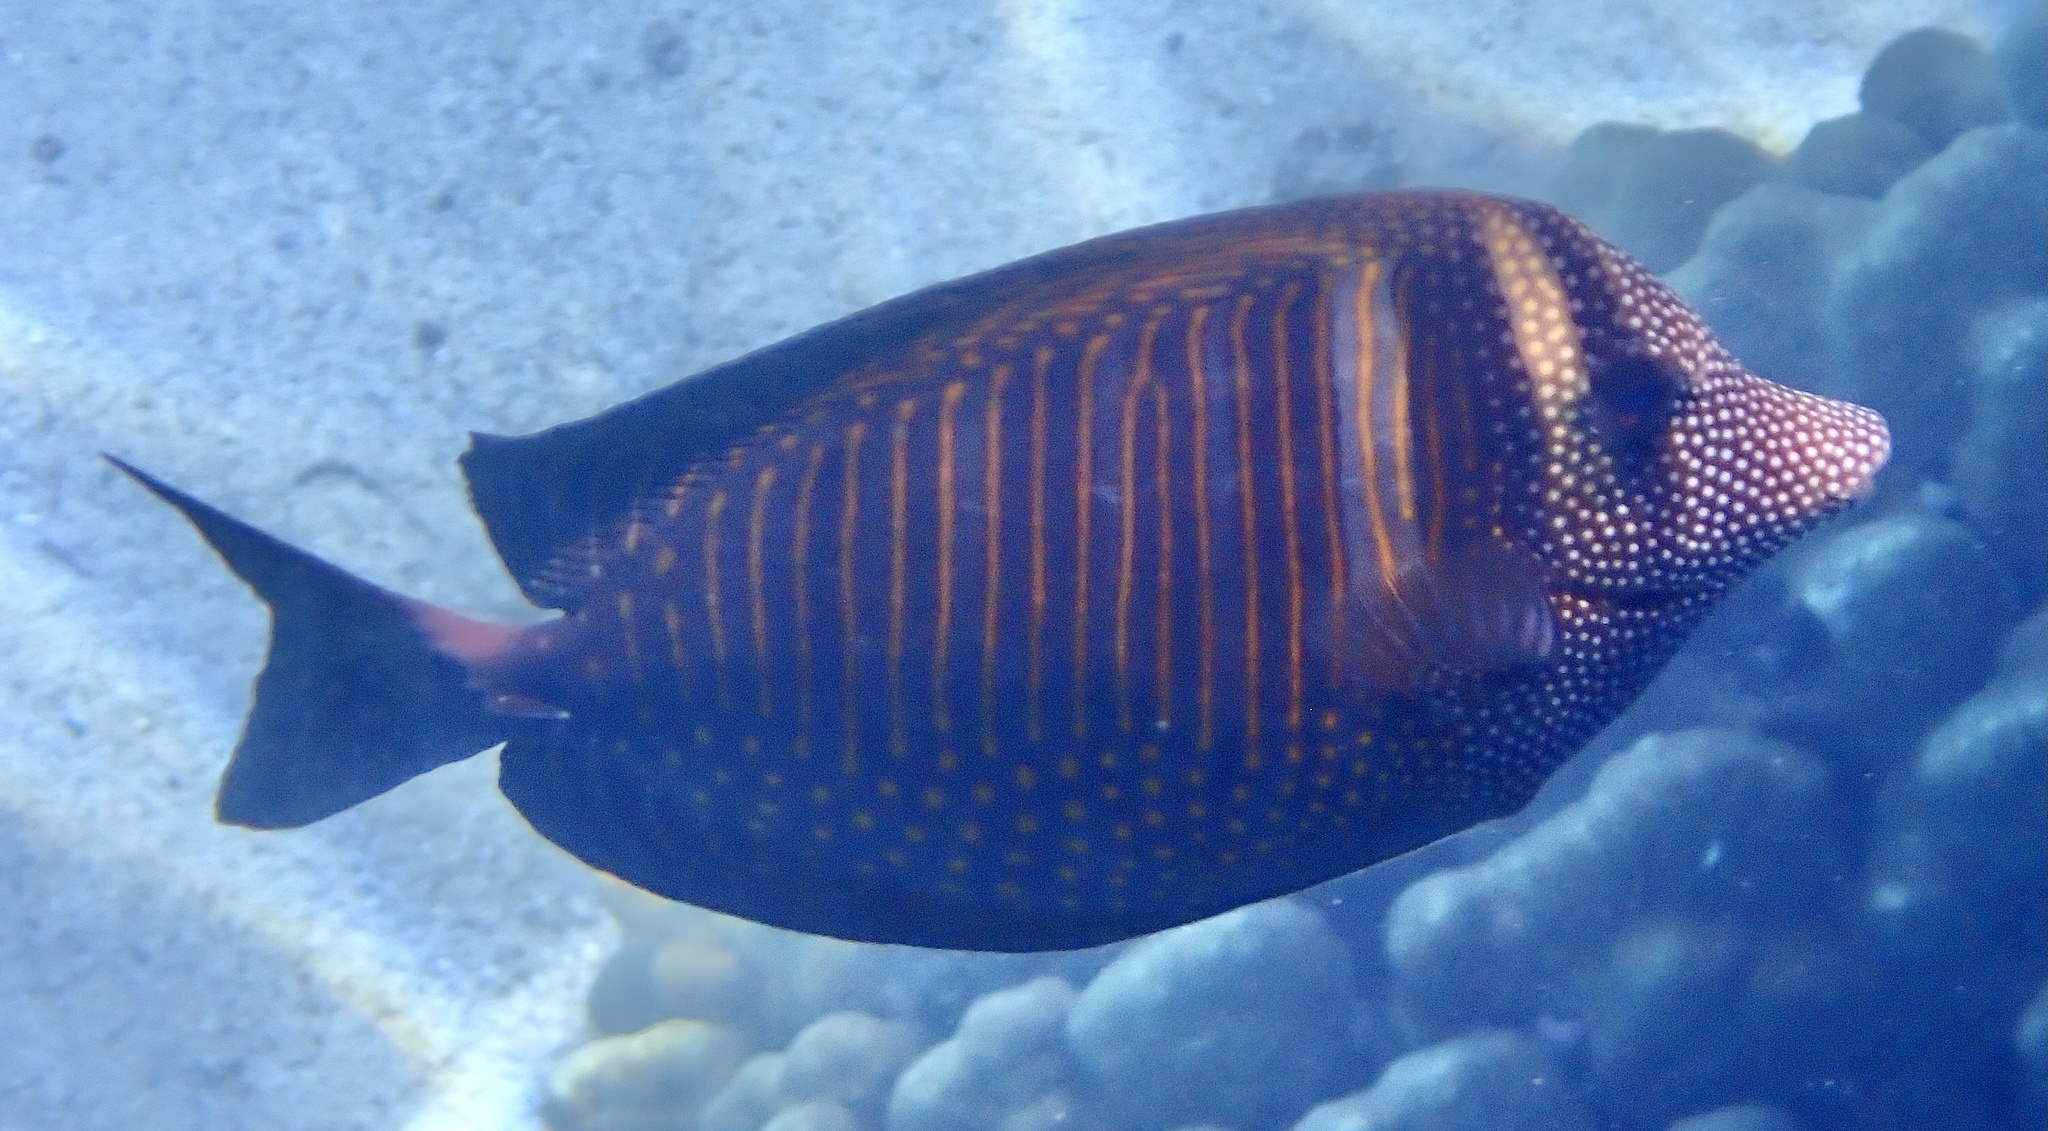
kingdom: Animalia
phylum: Chordata
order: Perciformes
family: Acanthuridae
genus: Zebrasoma
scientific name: Zebrasoma desjardinii
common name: Desjardin's sailfin tang
